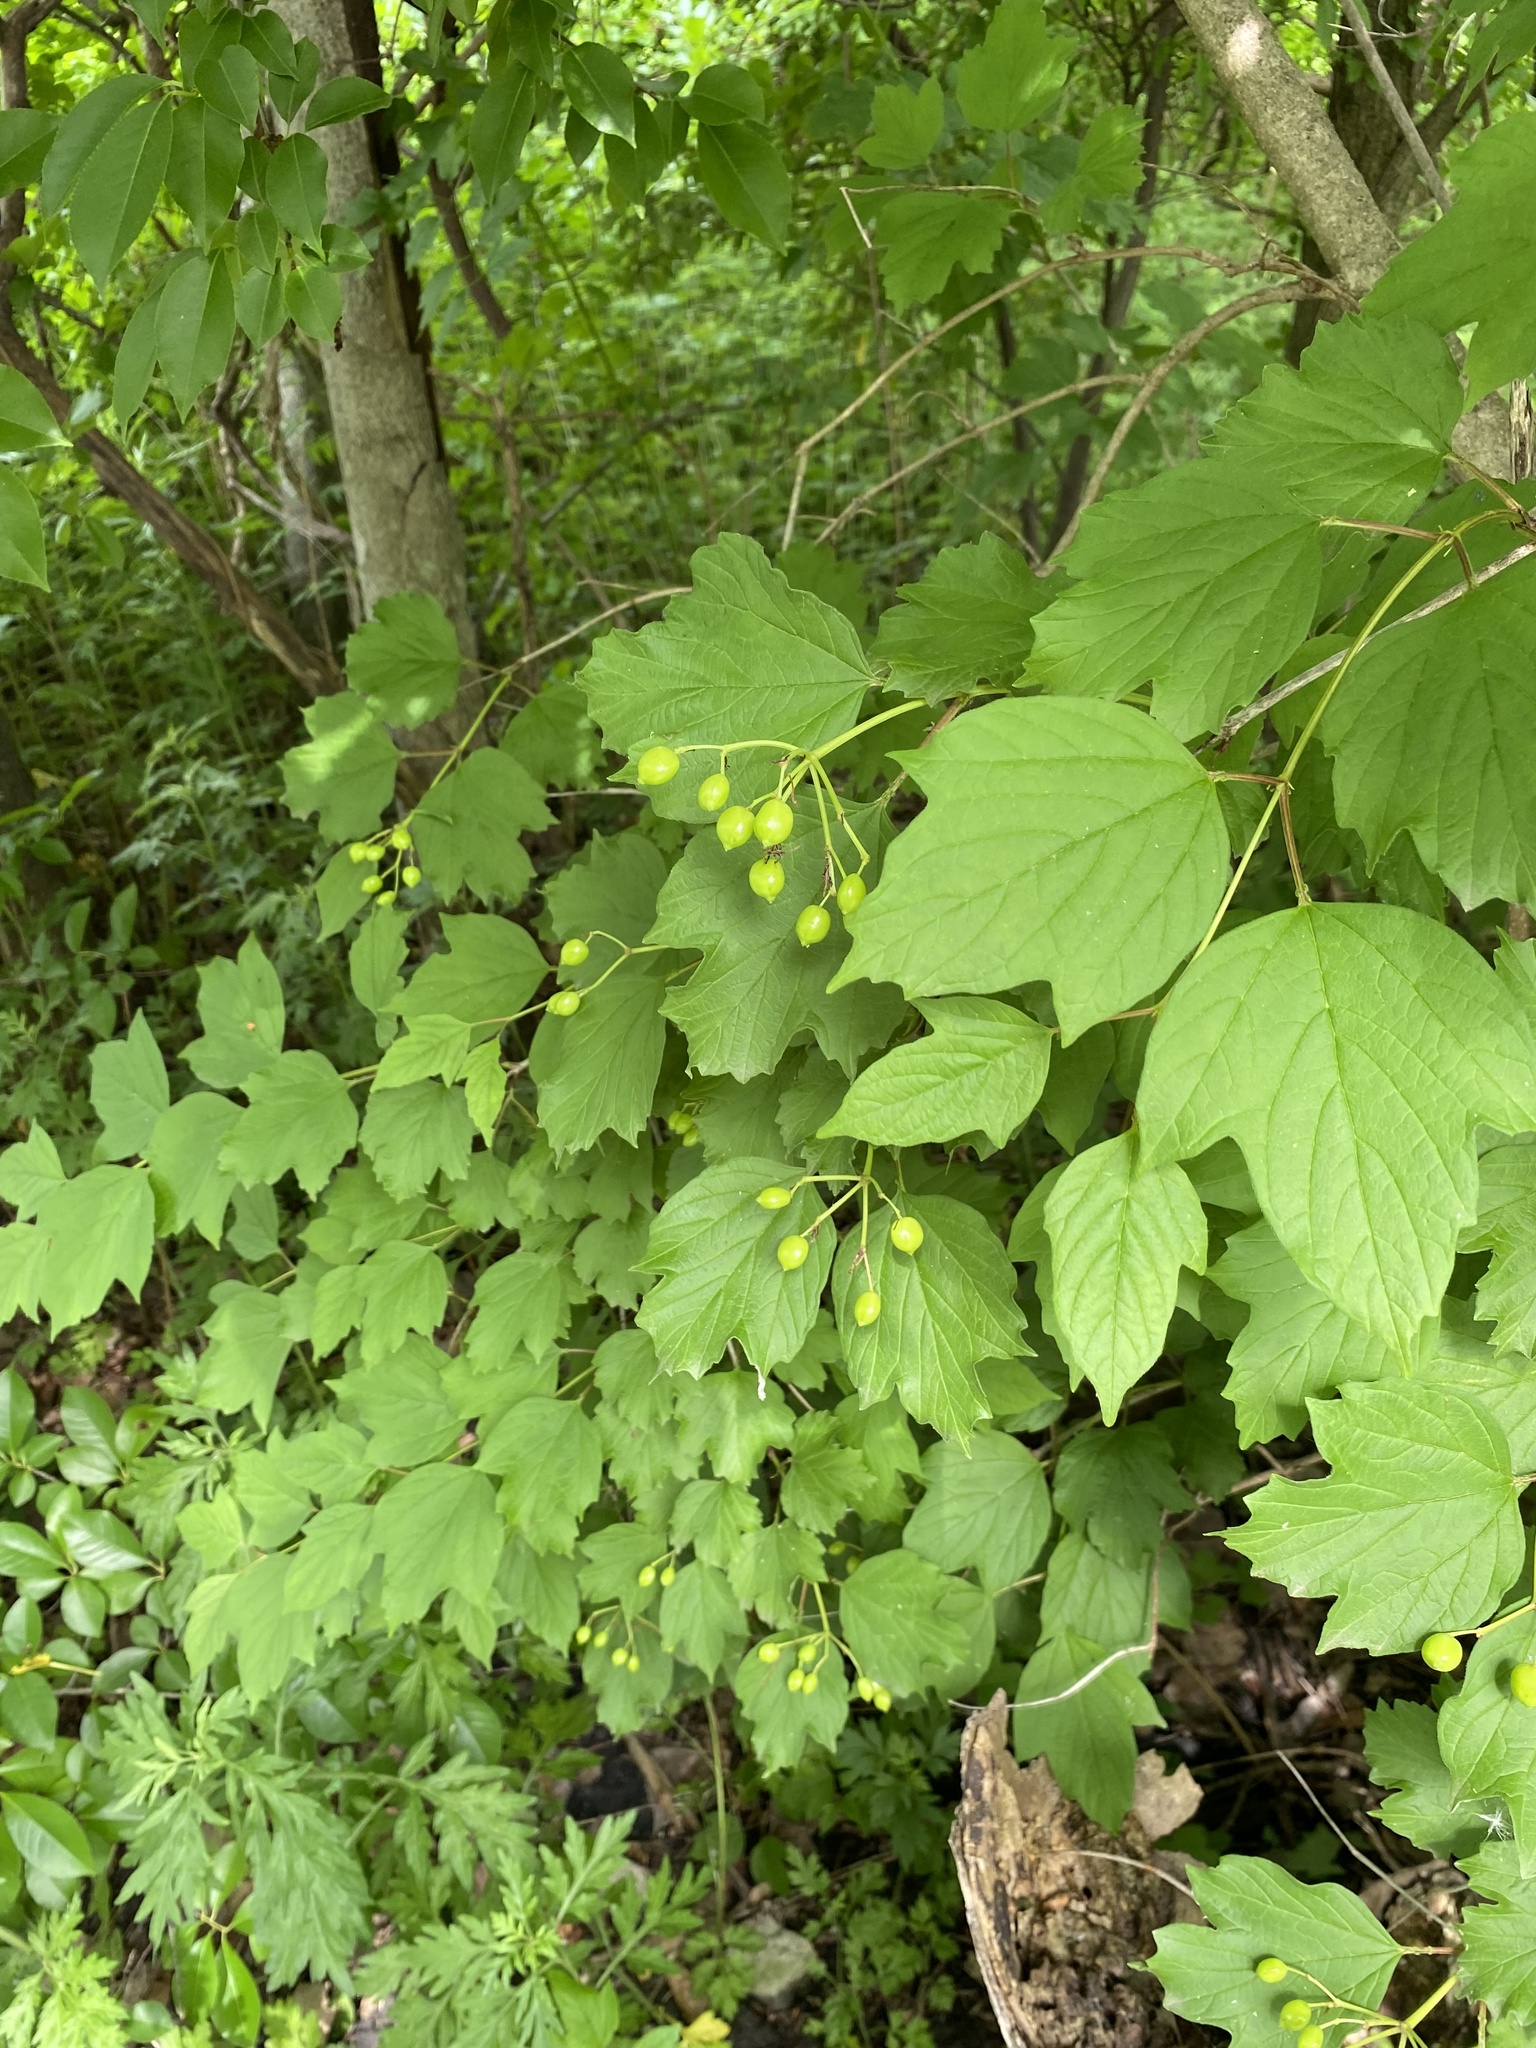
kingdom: Plantae
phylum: Tracheophyta
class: Magnoliopsida
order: Dipsacales
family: Viburnaceae
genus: Viburnum
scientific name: Viburnum opulus
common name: Guelder-rose
